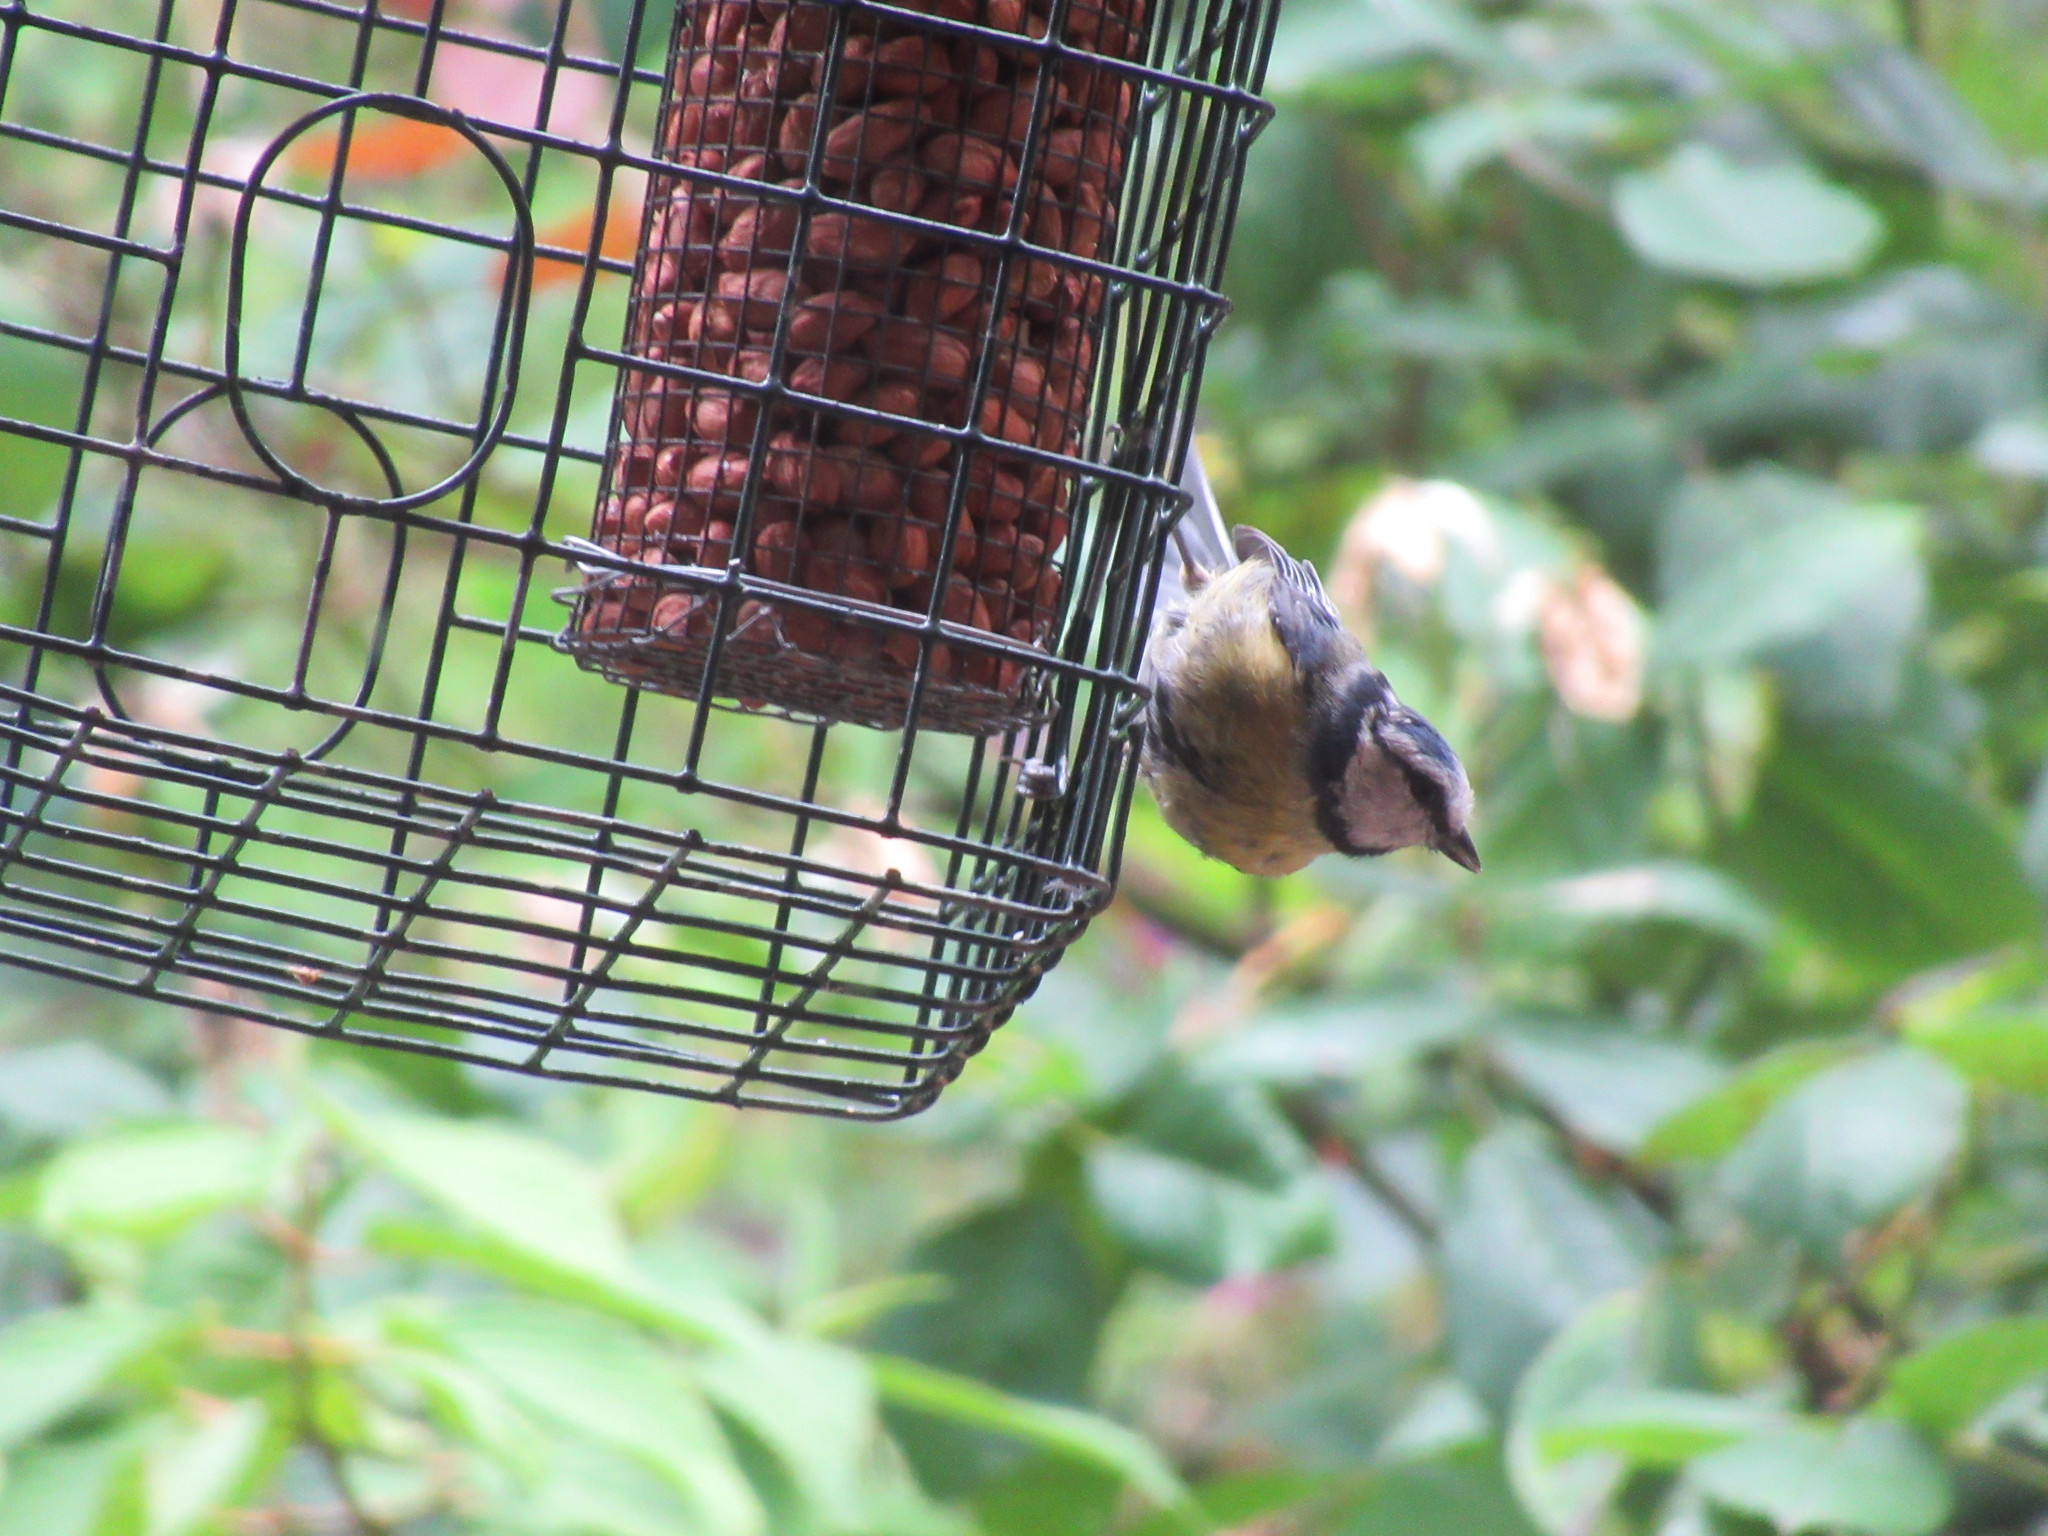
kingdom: Animalia
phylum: Chordata
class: Aves
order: Passeriformes
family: Paridae
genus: Cyanistes
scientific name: Cyanistes caeruleus
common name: Eurasian blue tit
